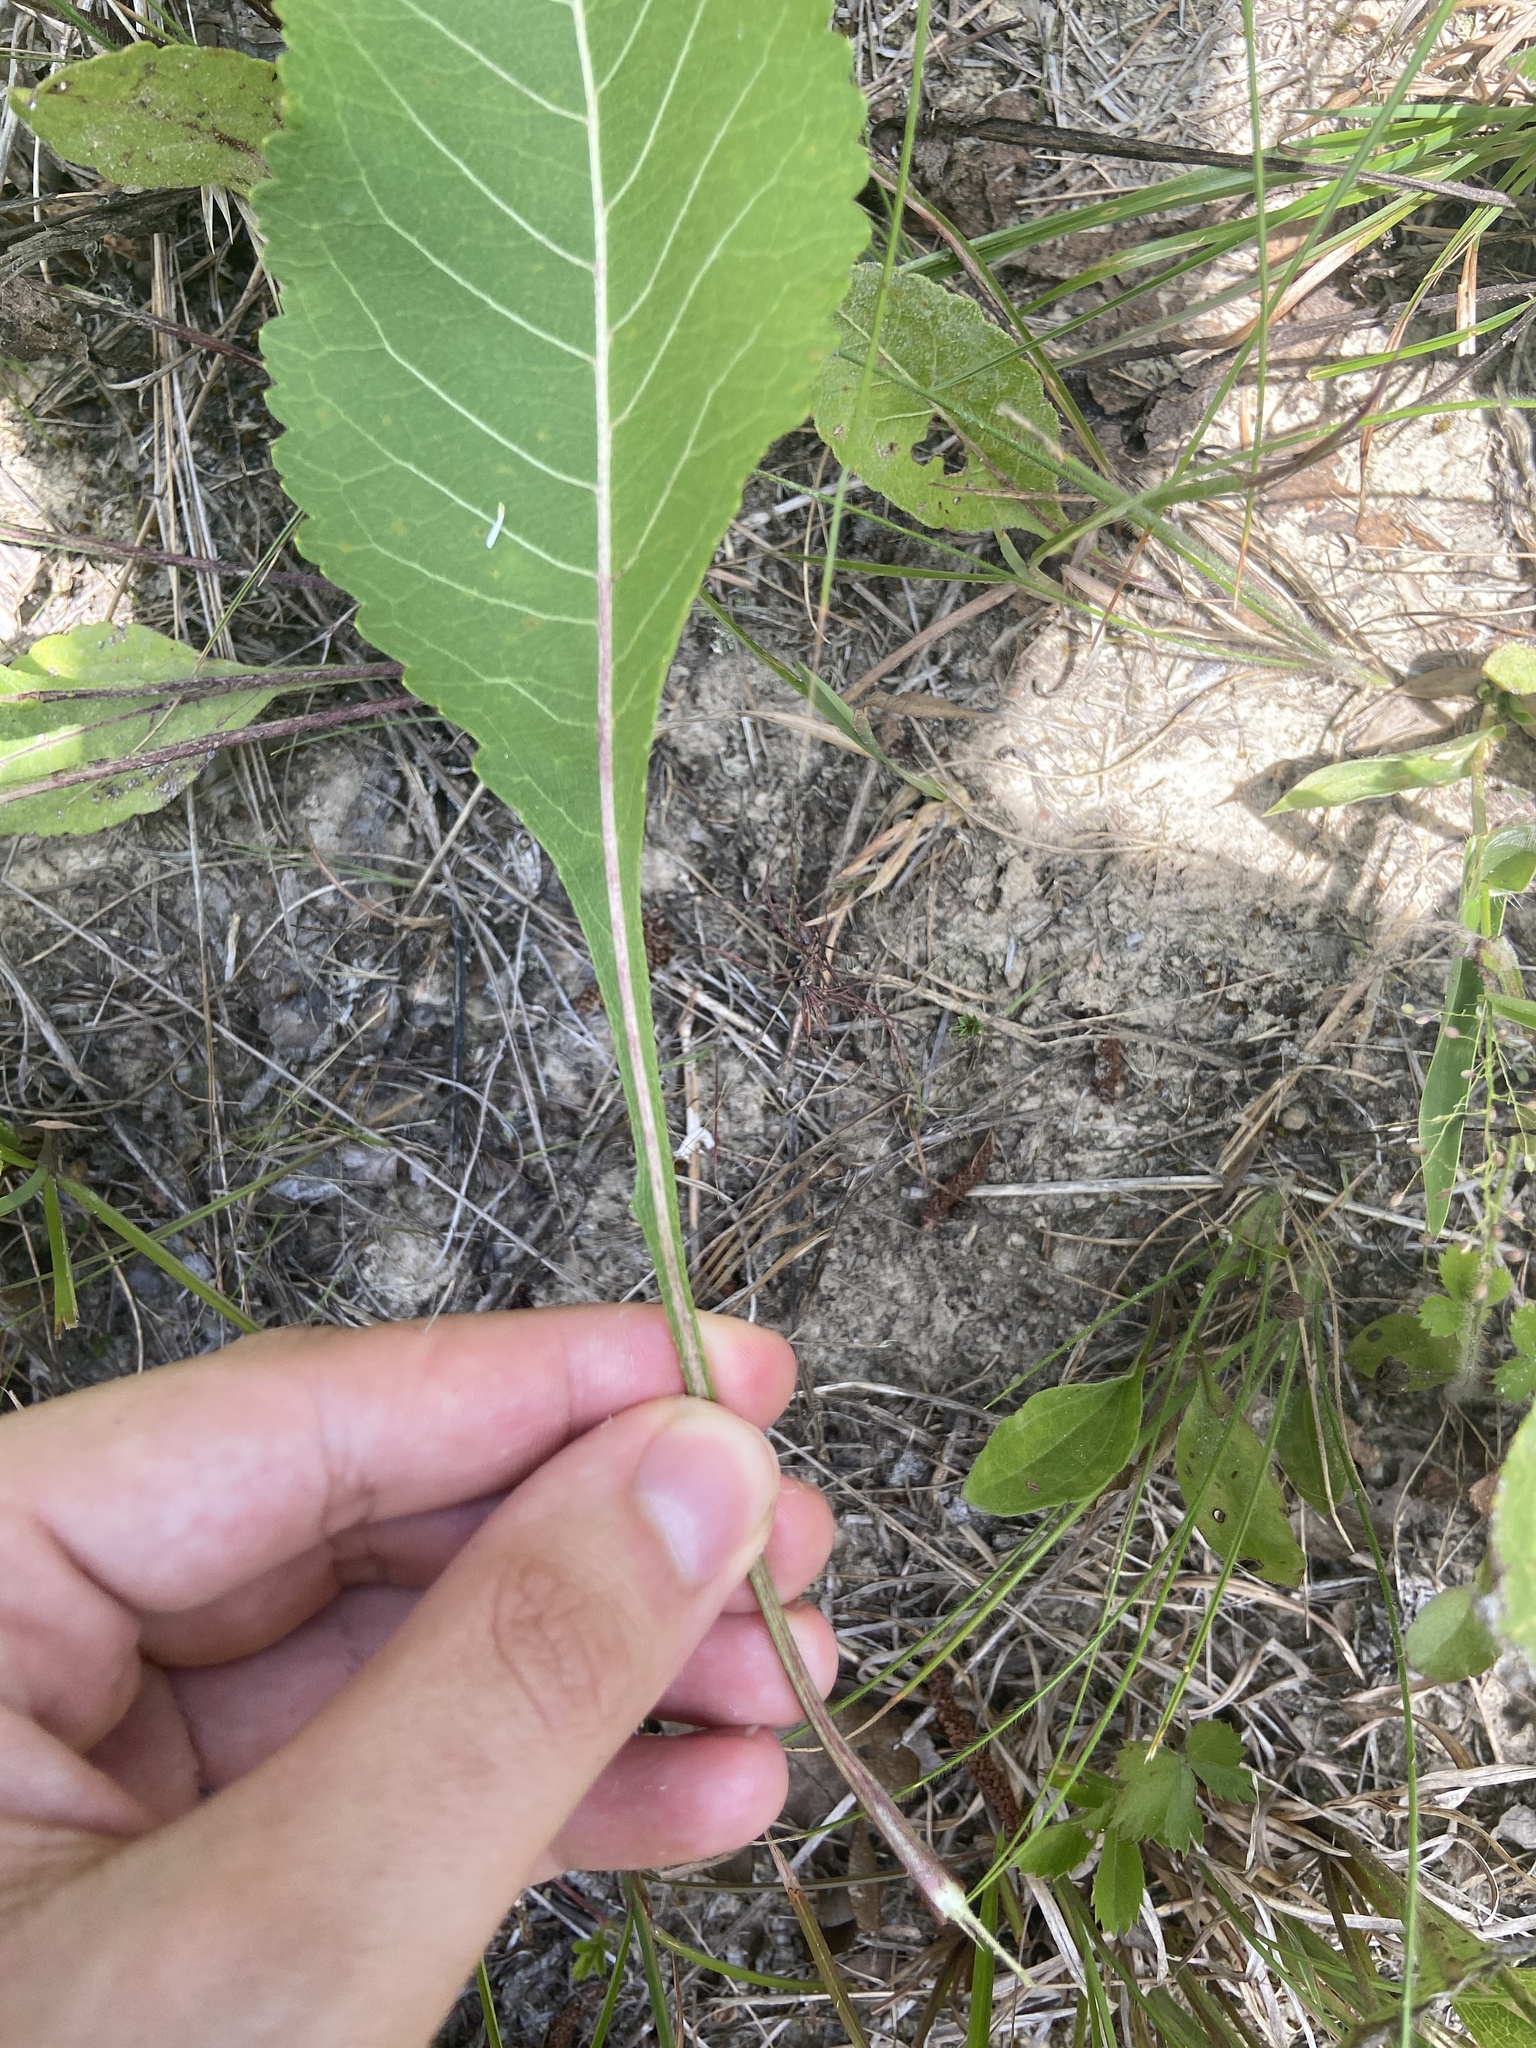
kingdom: Plantae
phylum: Tracheophyta
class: Magnoliopsida
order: Asterales
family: Asteraceae
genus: Parthenium
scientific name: Parthenium integrifolium
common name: American feverfew
